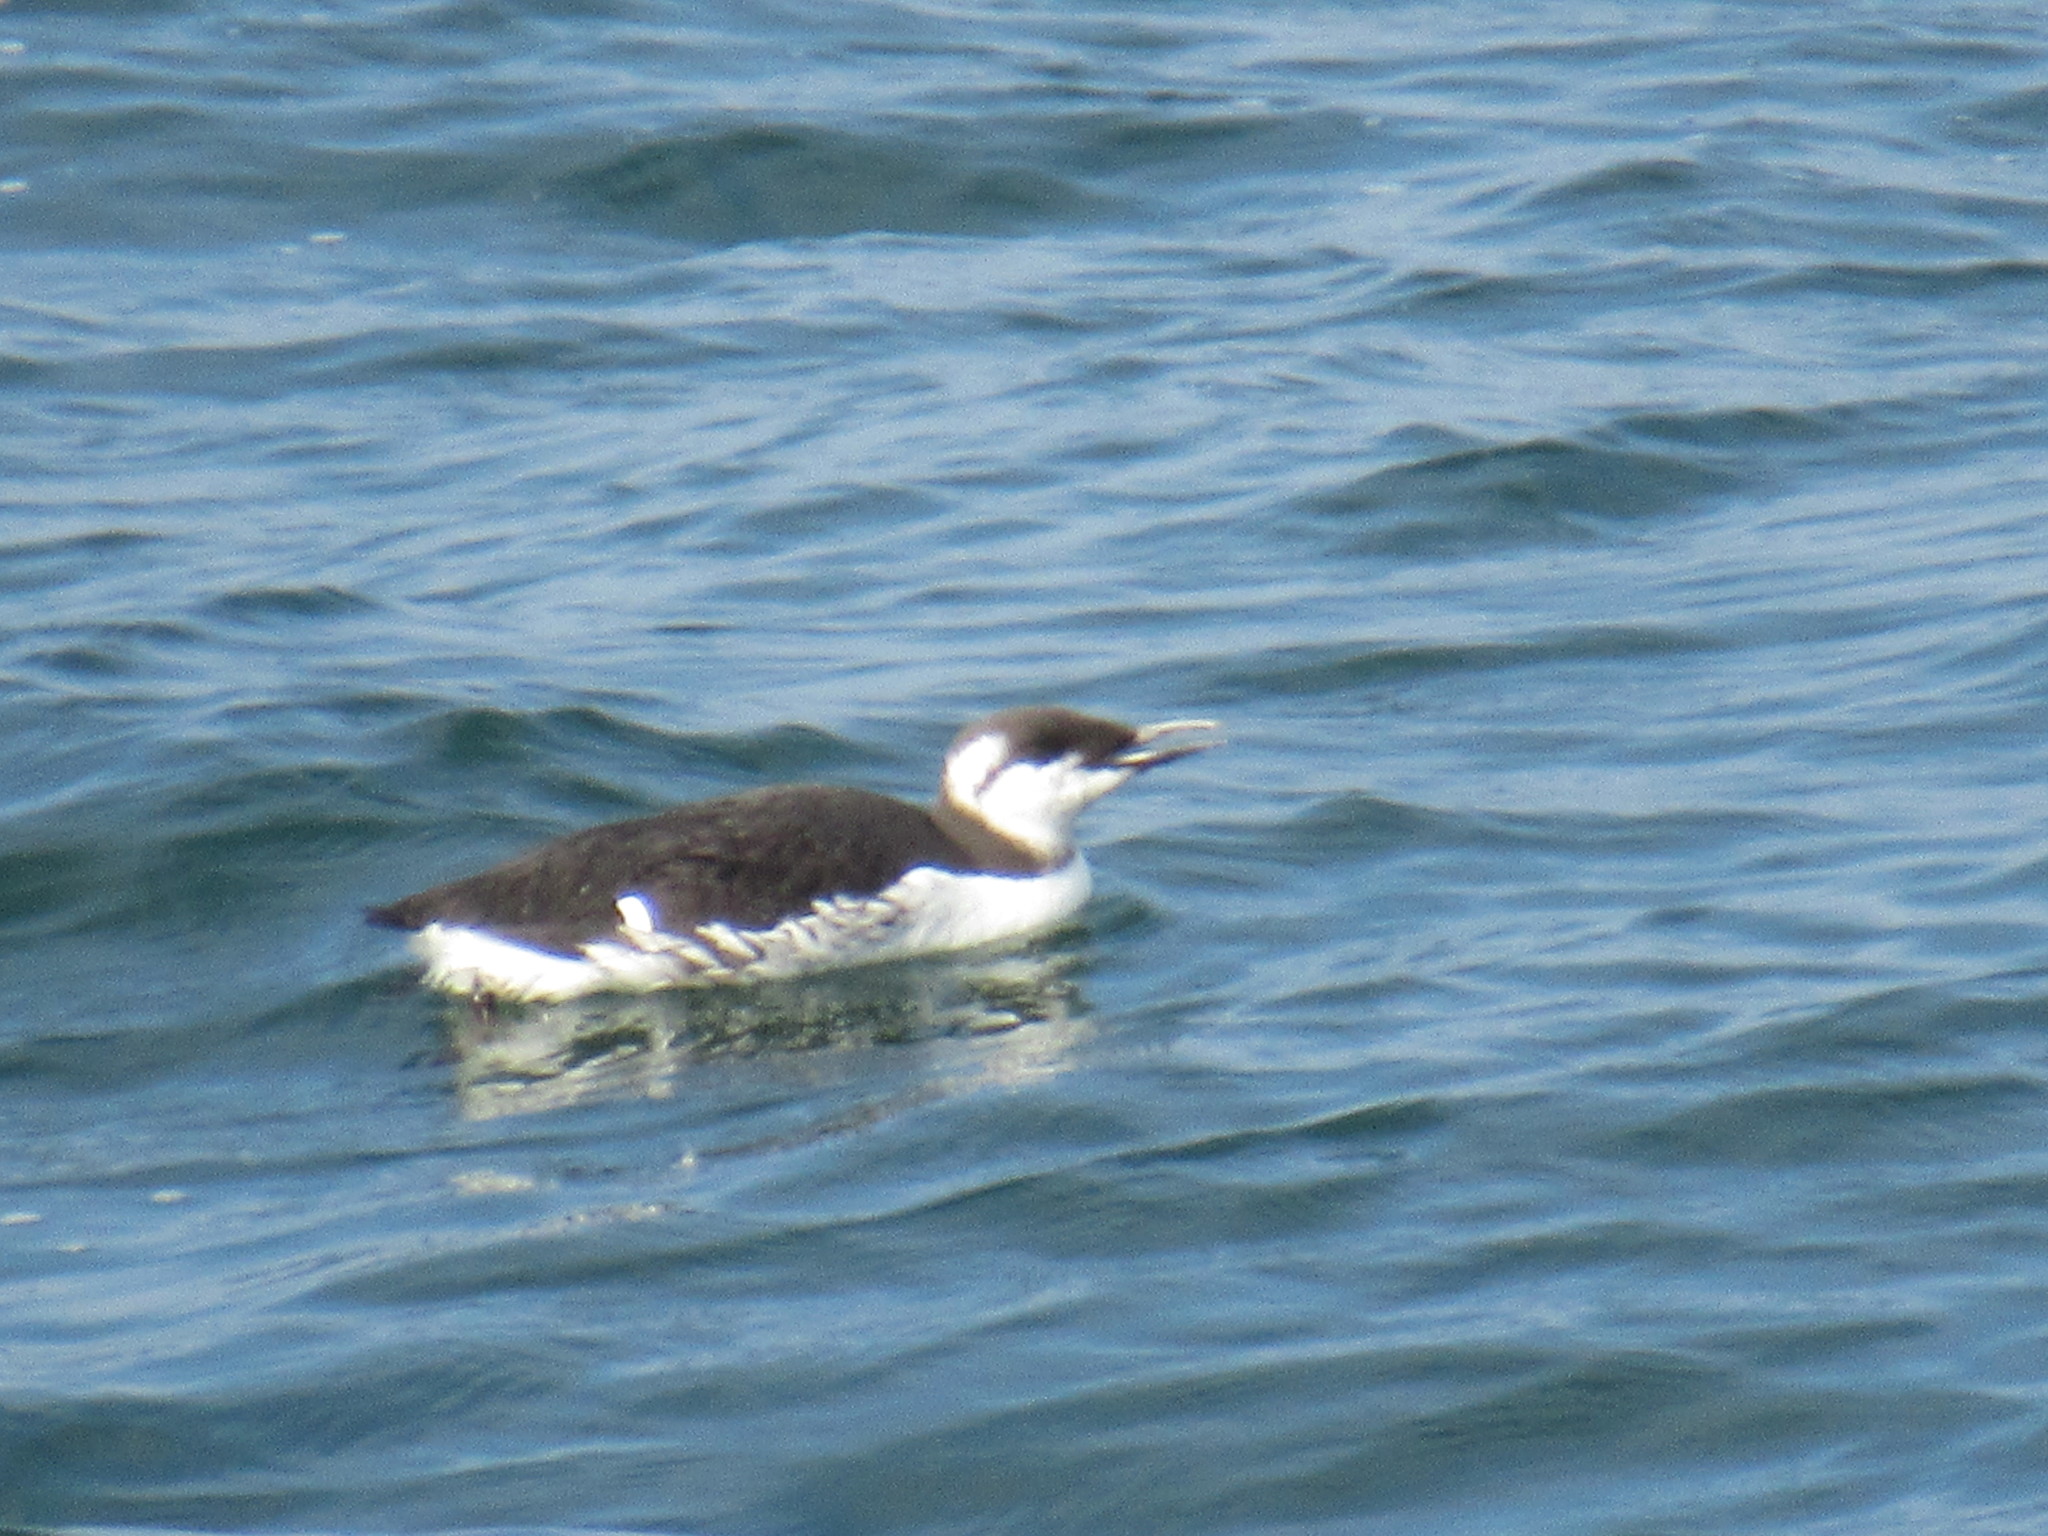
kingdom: Animalia
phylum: Chordata
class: Aves
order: Charadriiformes
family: Alcidae
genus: Uria
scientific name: Uria aalge
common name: Common murre
